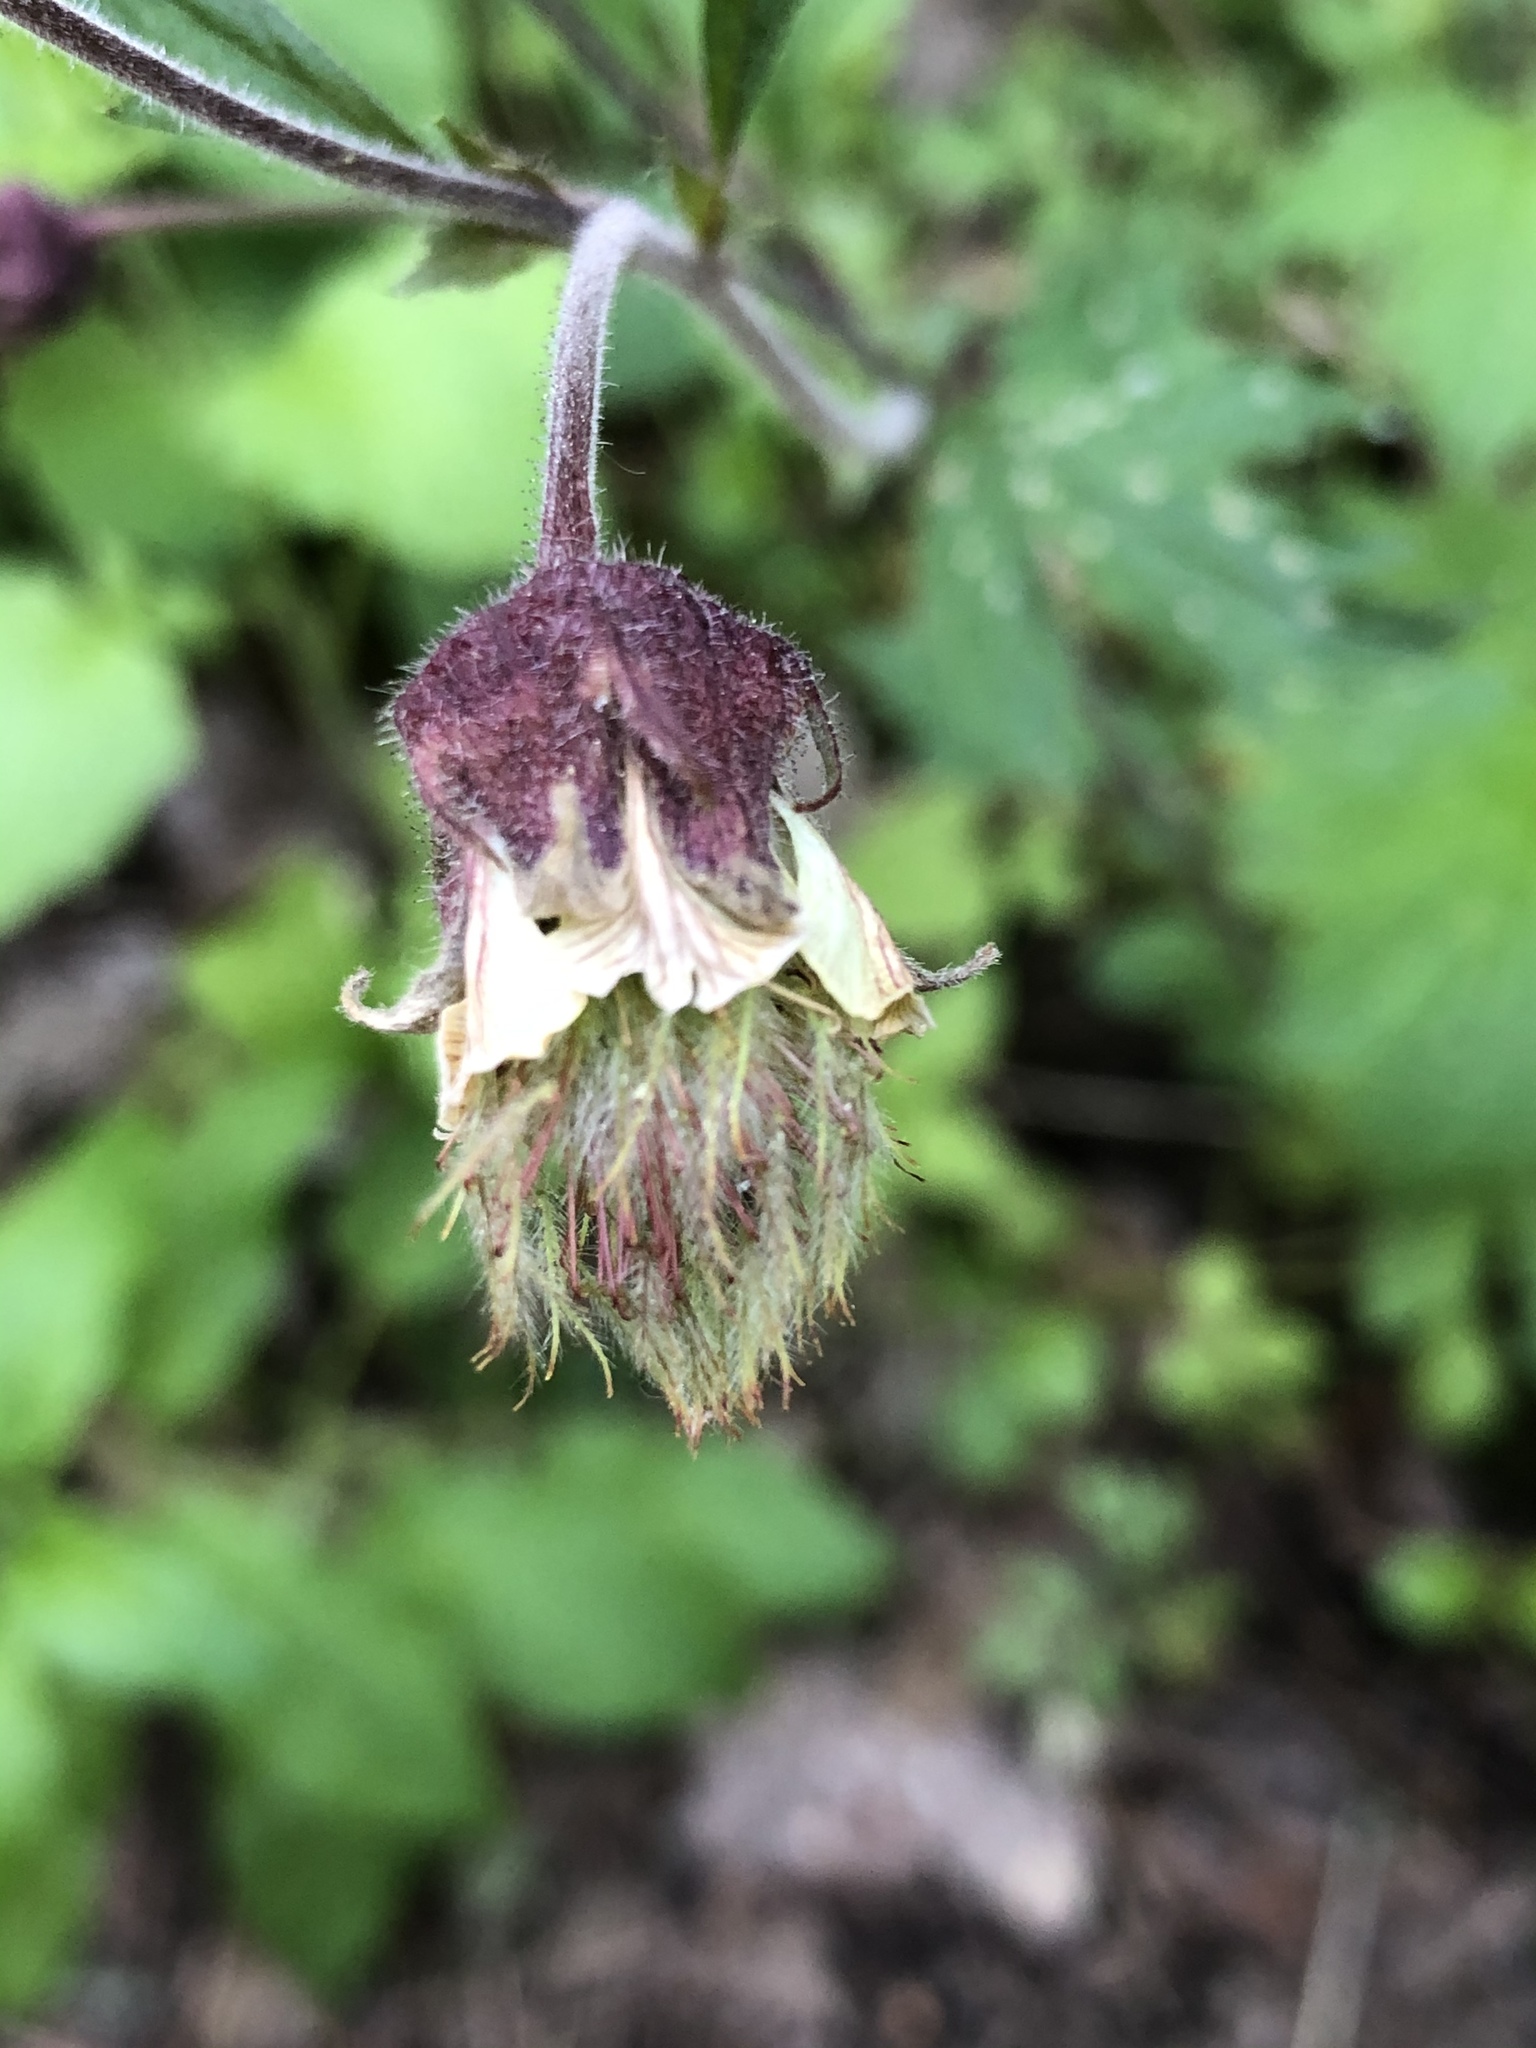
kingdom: Plantae
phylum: Tracheophyta
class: Magnoliopsida
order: Rosales
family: Rosaceae
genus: Geum
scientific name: Geum rivale
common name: Water avens
